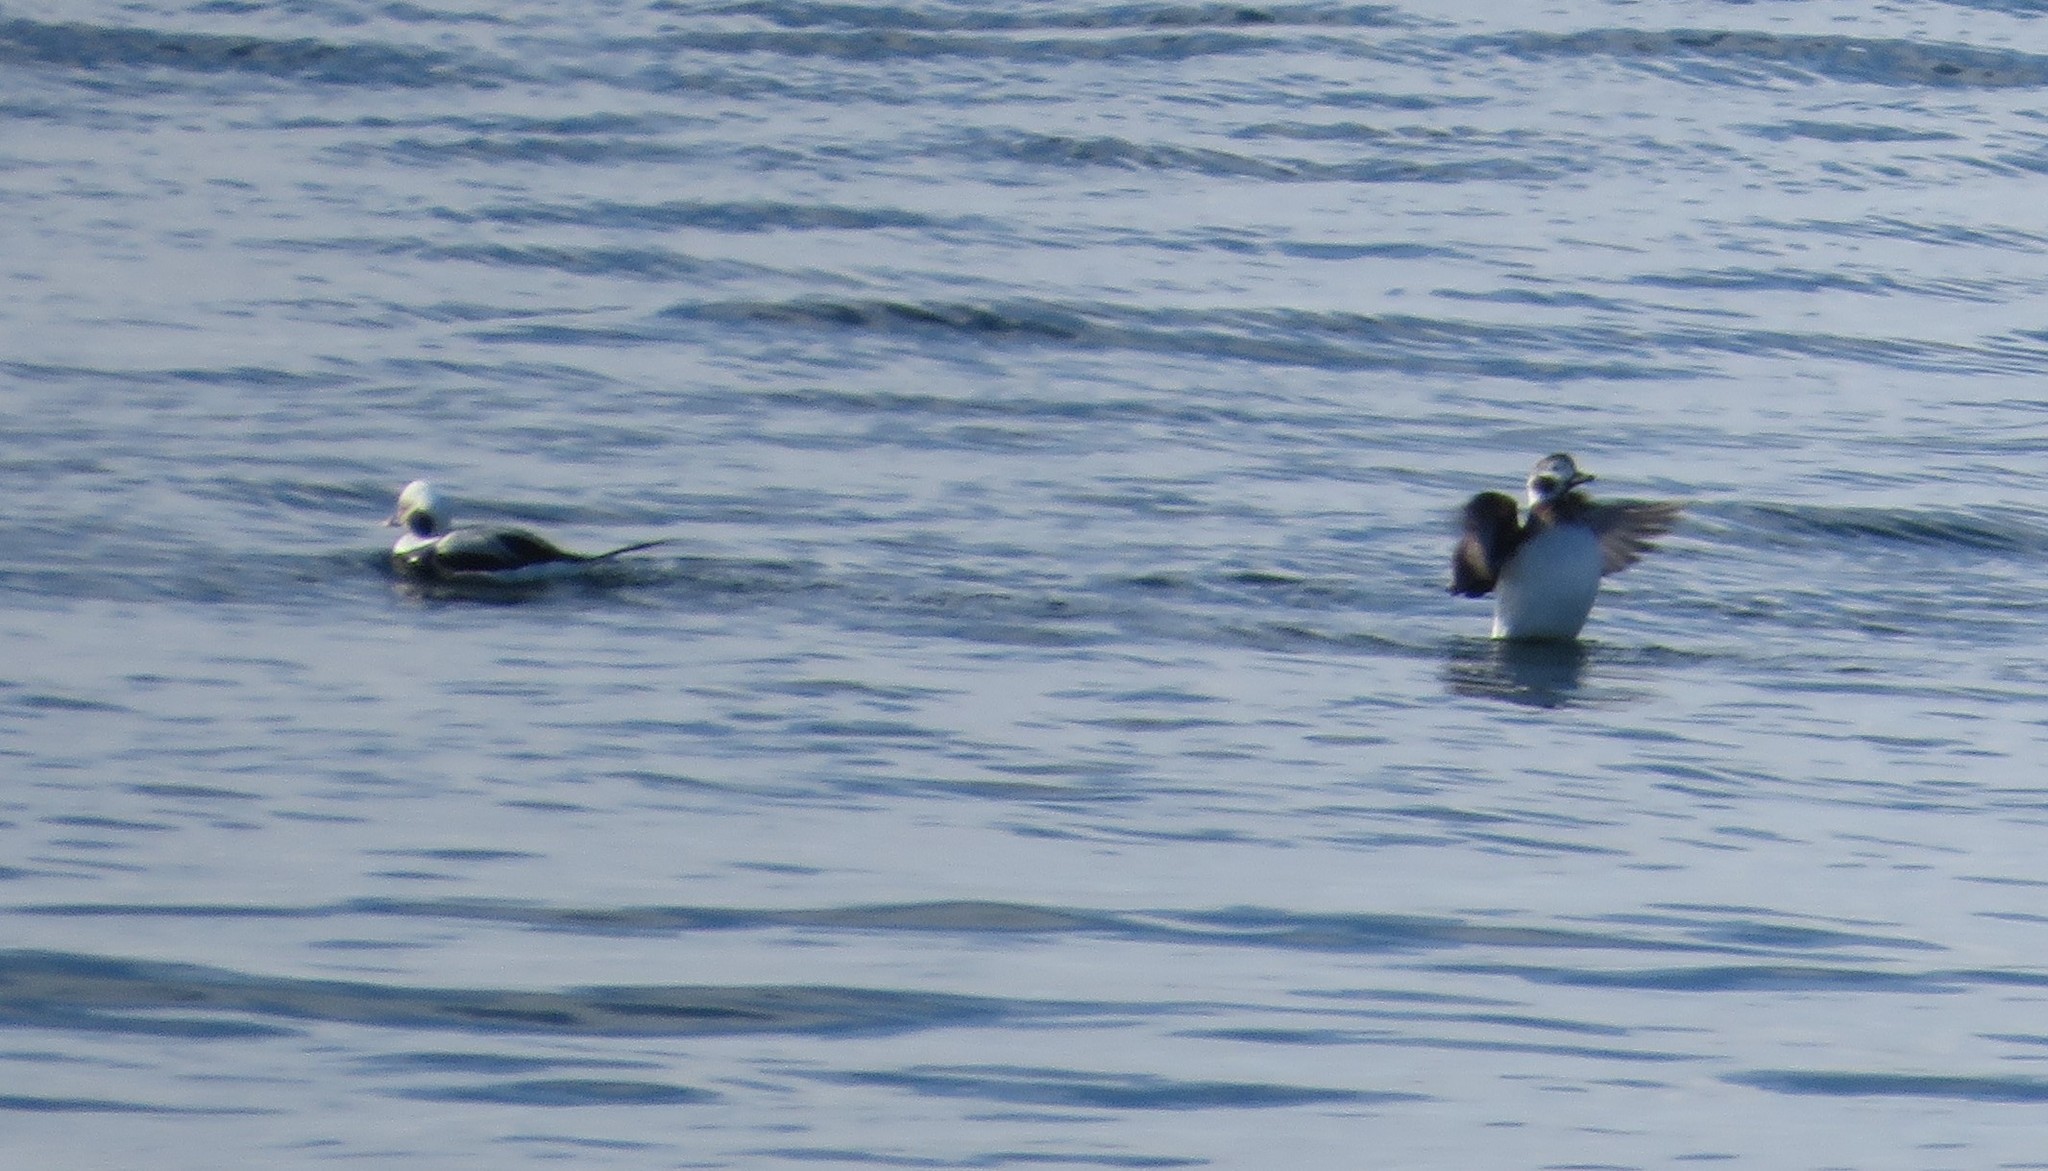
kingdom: Animalia
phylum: Chordata
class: Aves
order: Anseriformes
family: Anatidae
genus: Clangula
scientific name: Clangula hyemalis
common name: Long-tailed duck
